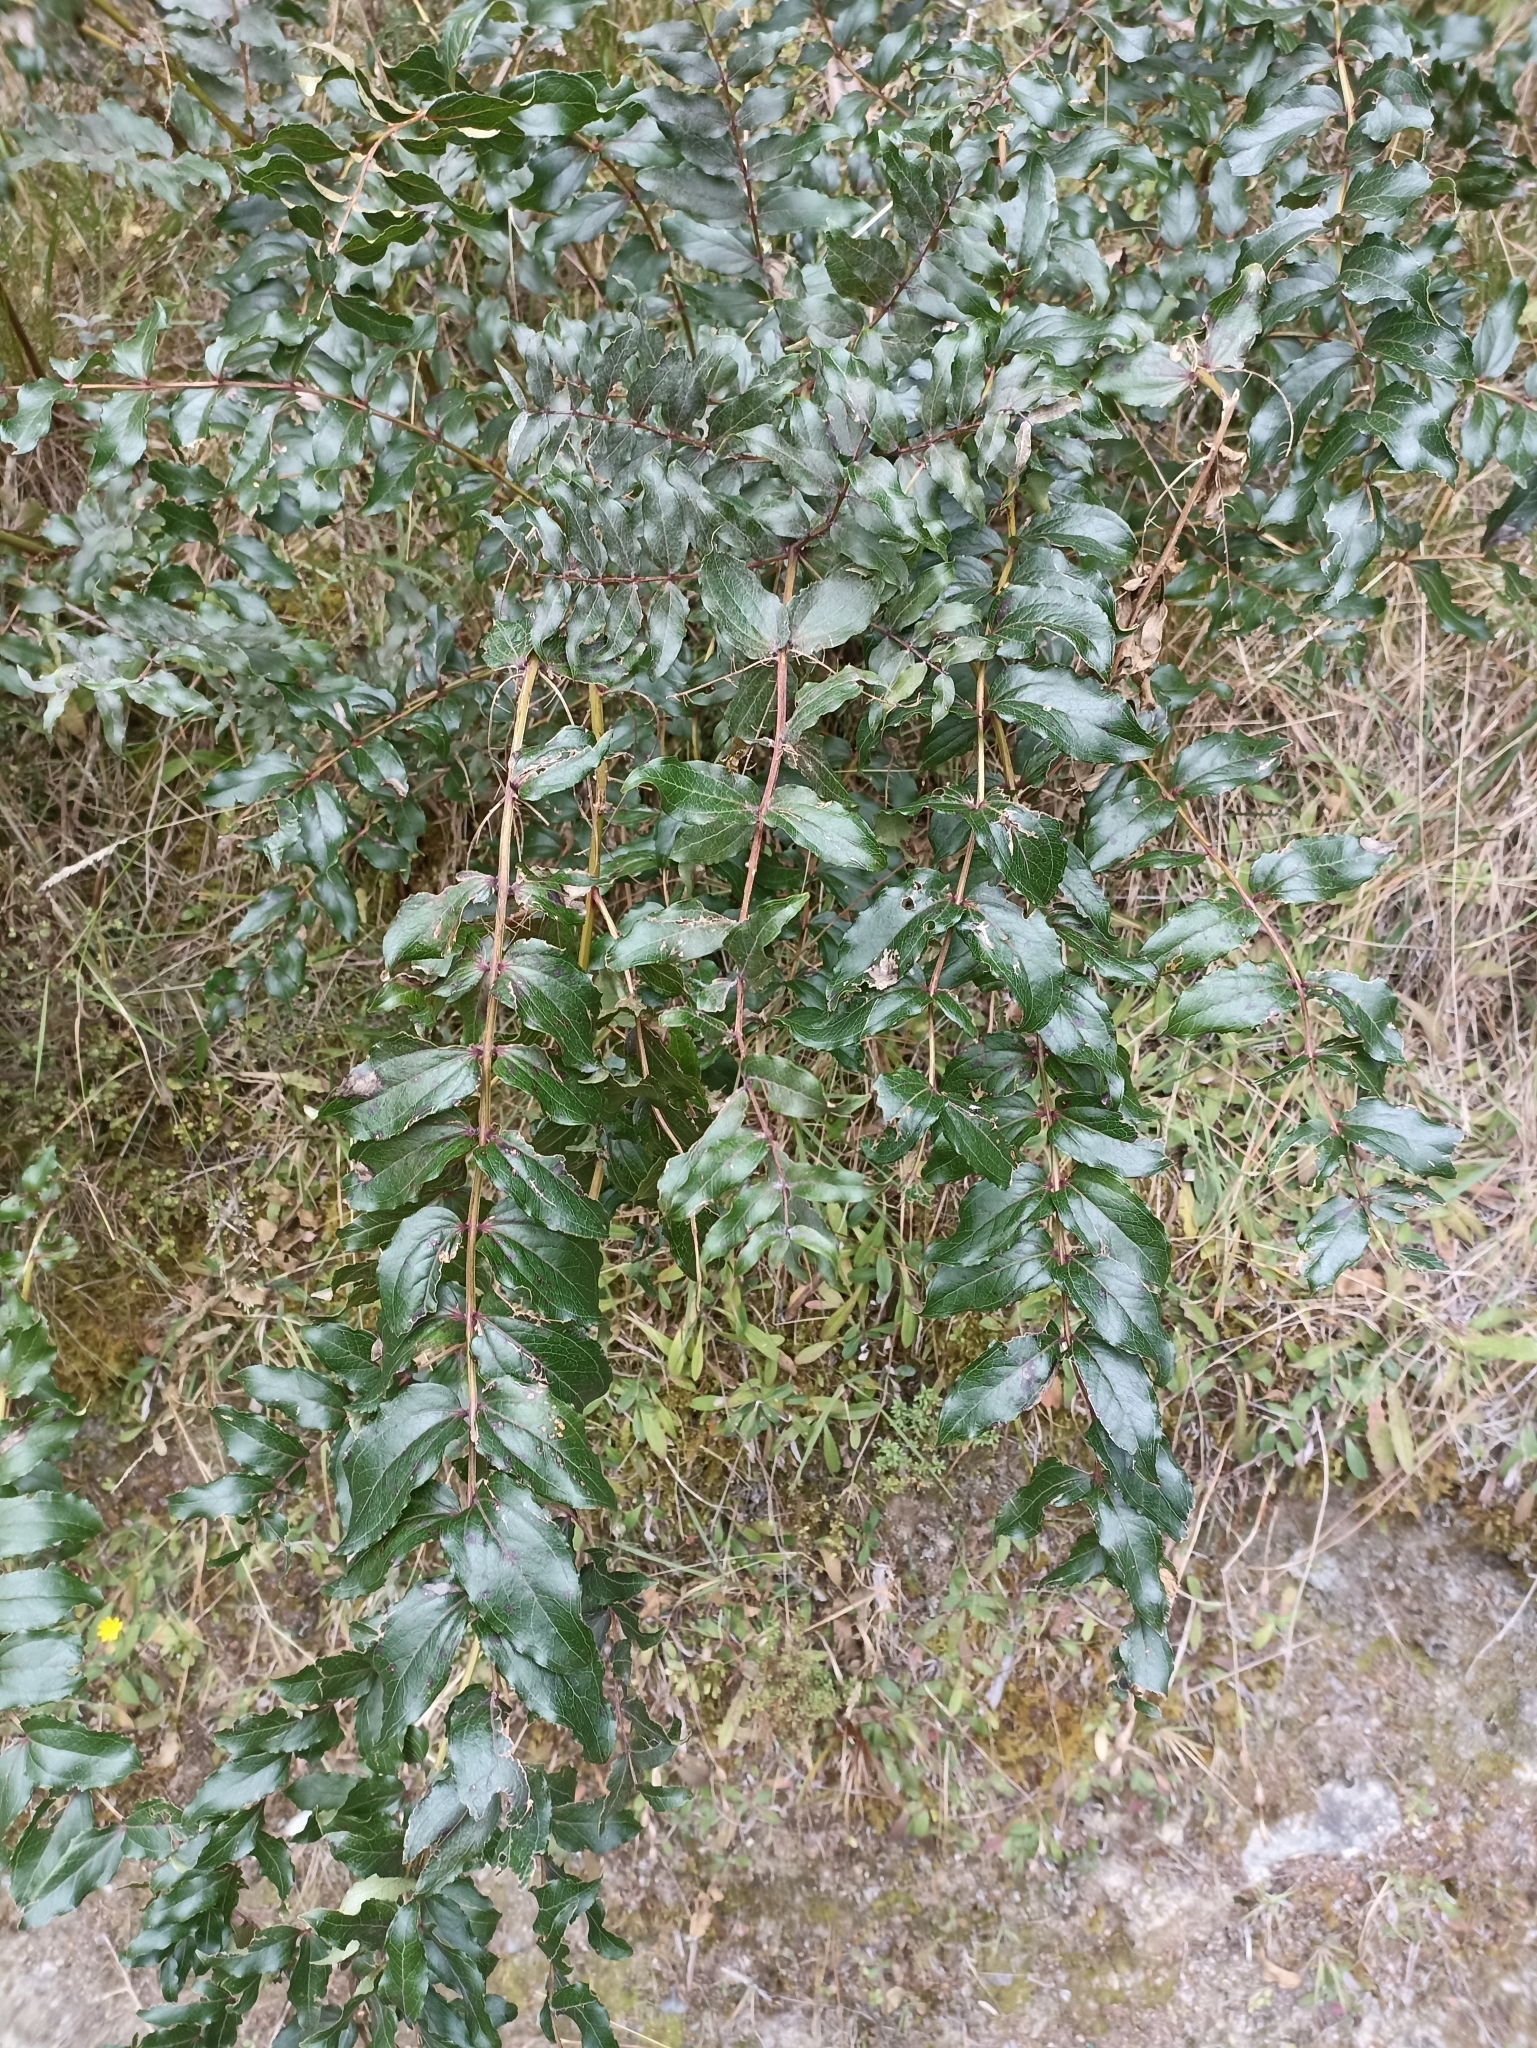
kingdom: Plantae
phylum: Tracheophyta
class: Magnoliopsida
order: Cucurbitales
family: Coriariaceae
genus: Coriaria
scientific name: Coriaria sarmentosa
